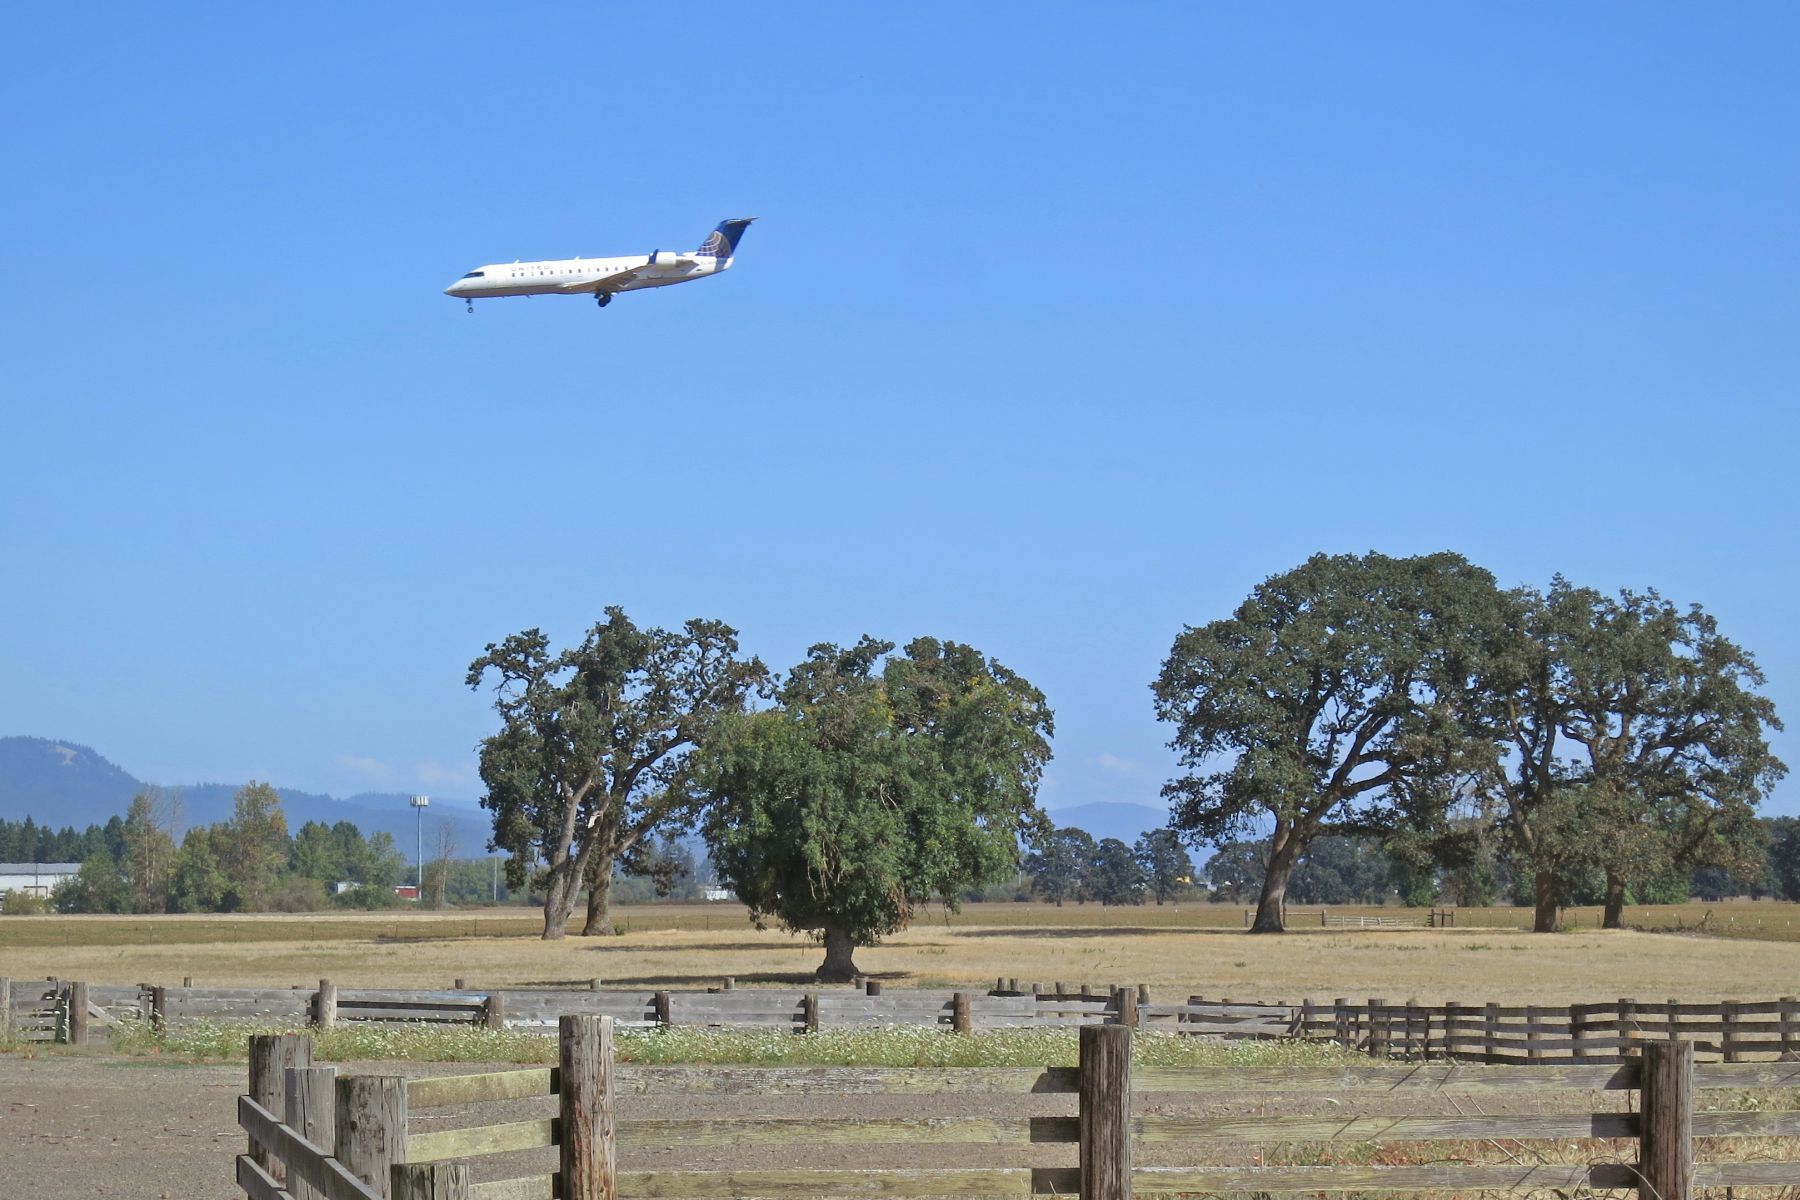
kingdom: Plantae
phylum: Tracheophyta
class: Magnoliopsida
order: Fagales
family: Fagaceae
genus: Quercus
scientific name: Quercus garryana
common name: Garry oak
